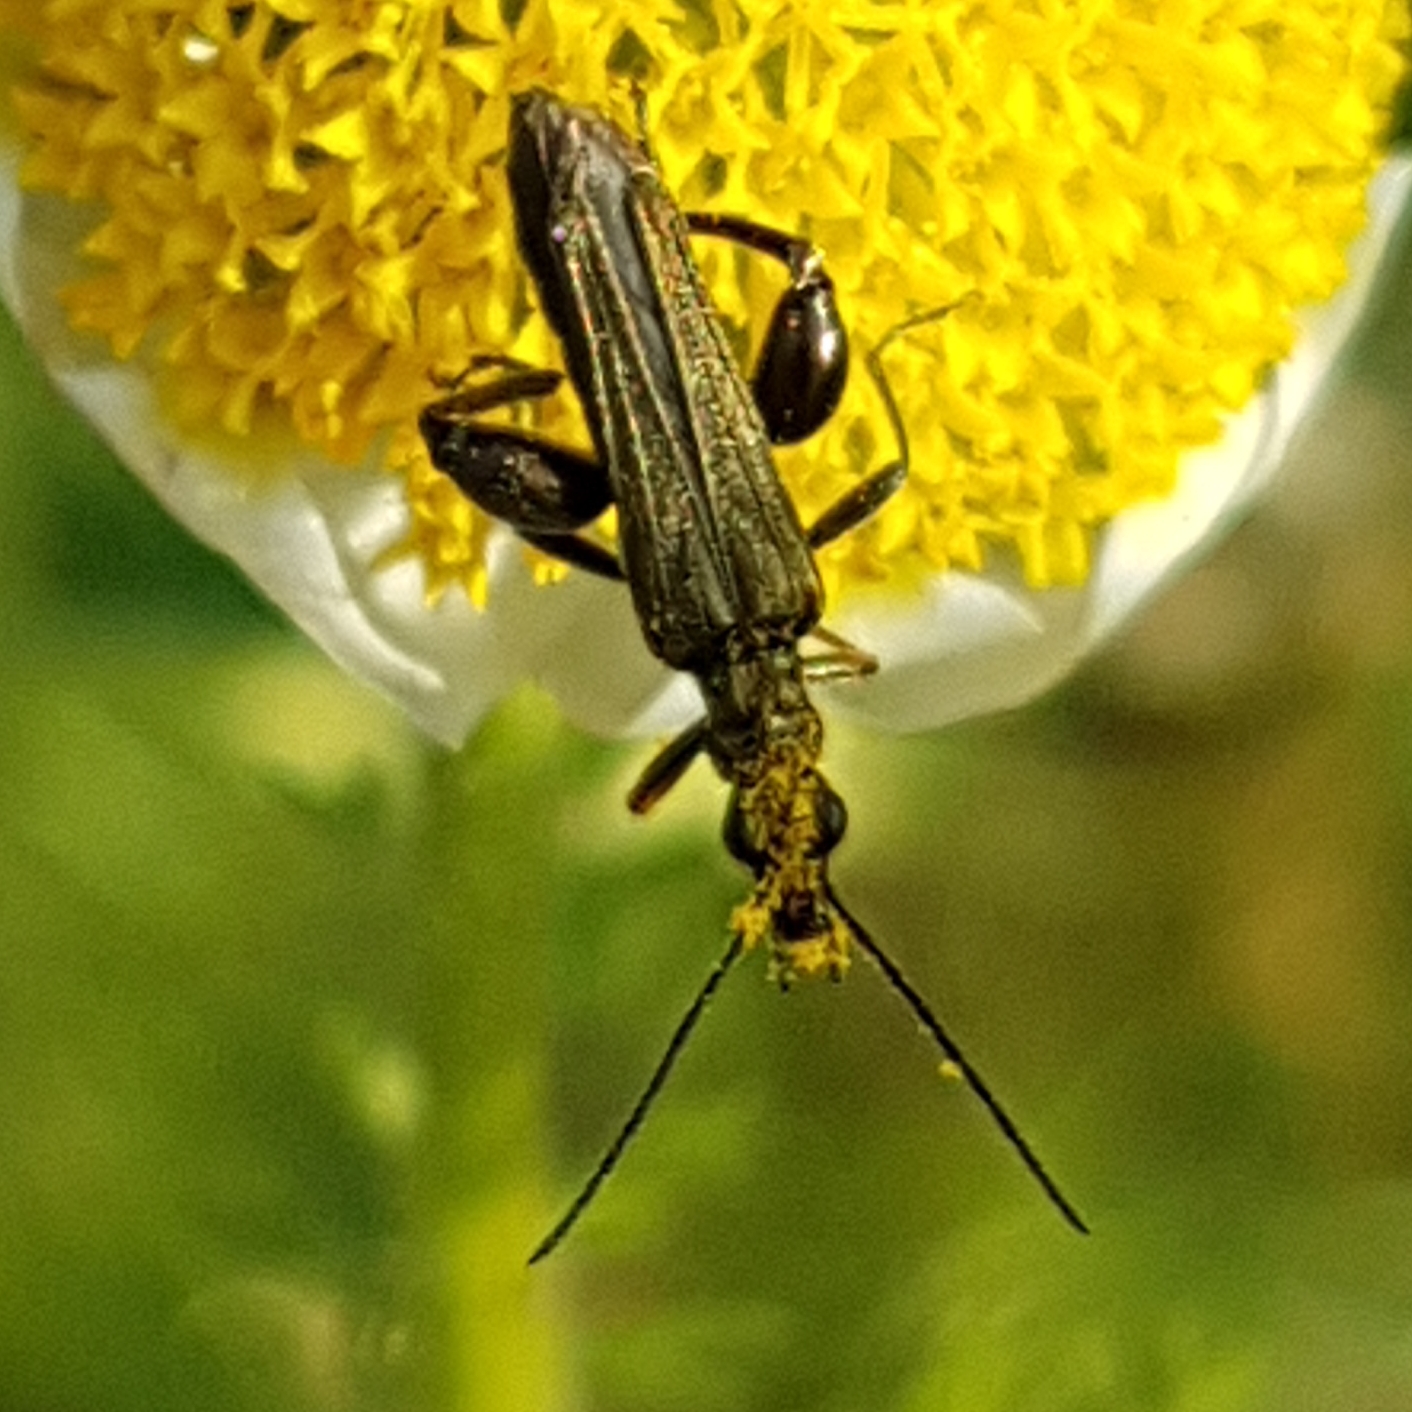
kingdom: Animalia
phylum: Arthropoda
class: Insecta
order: Coleoptera
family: Oedemeridae
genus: Oedemera
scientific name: Oedemera flavipes
